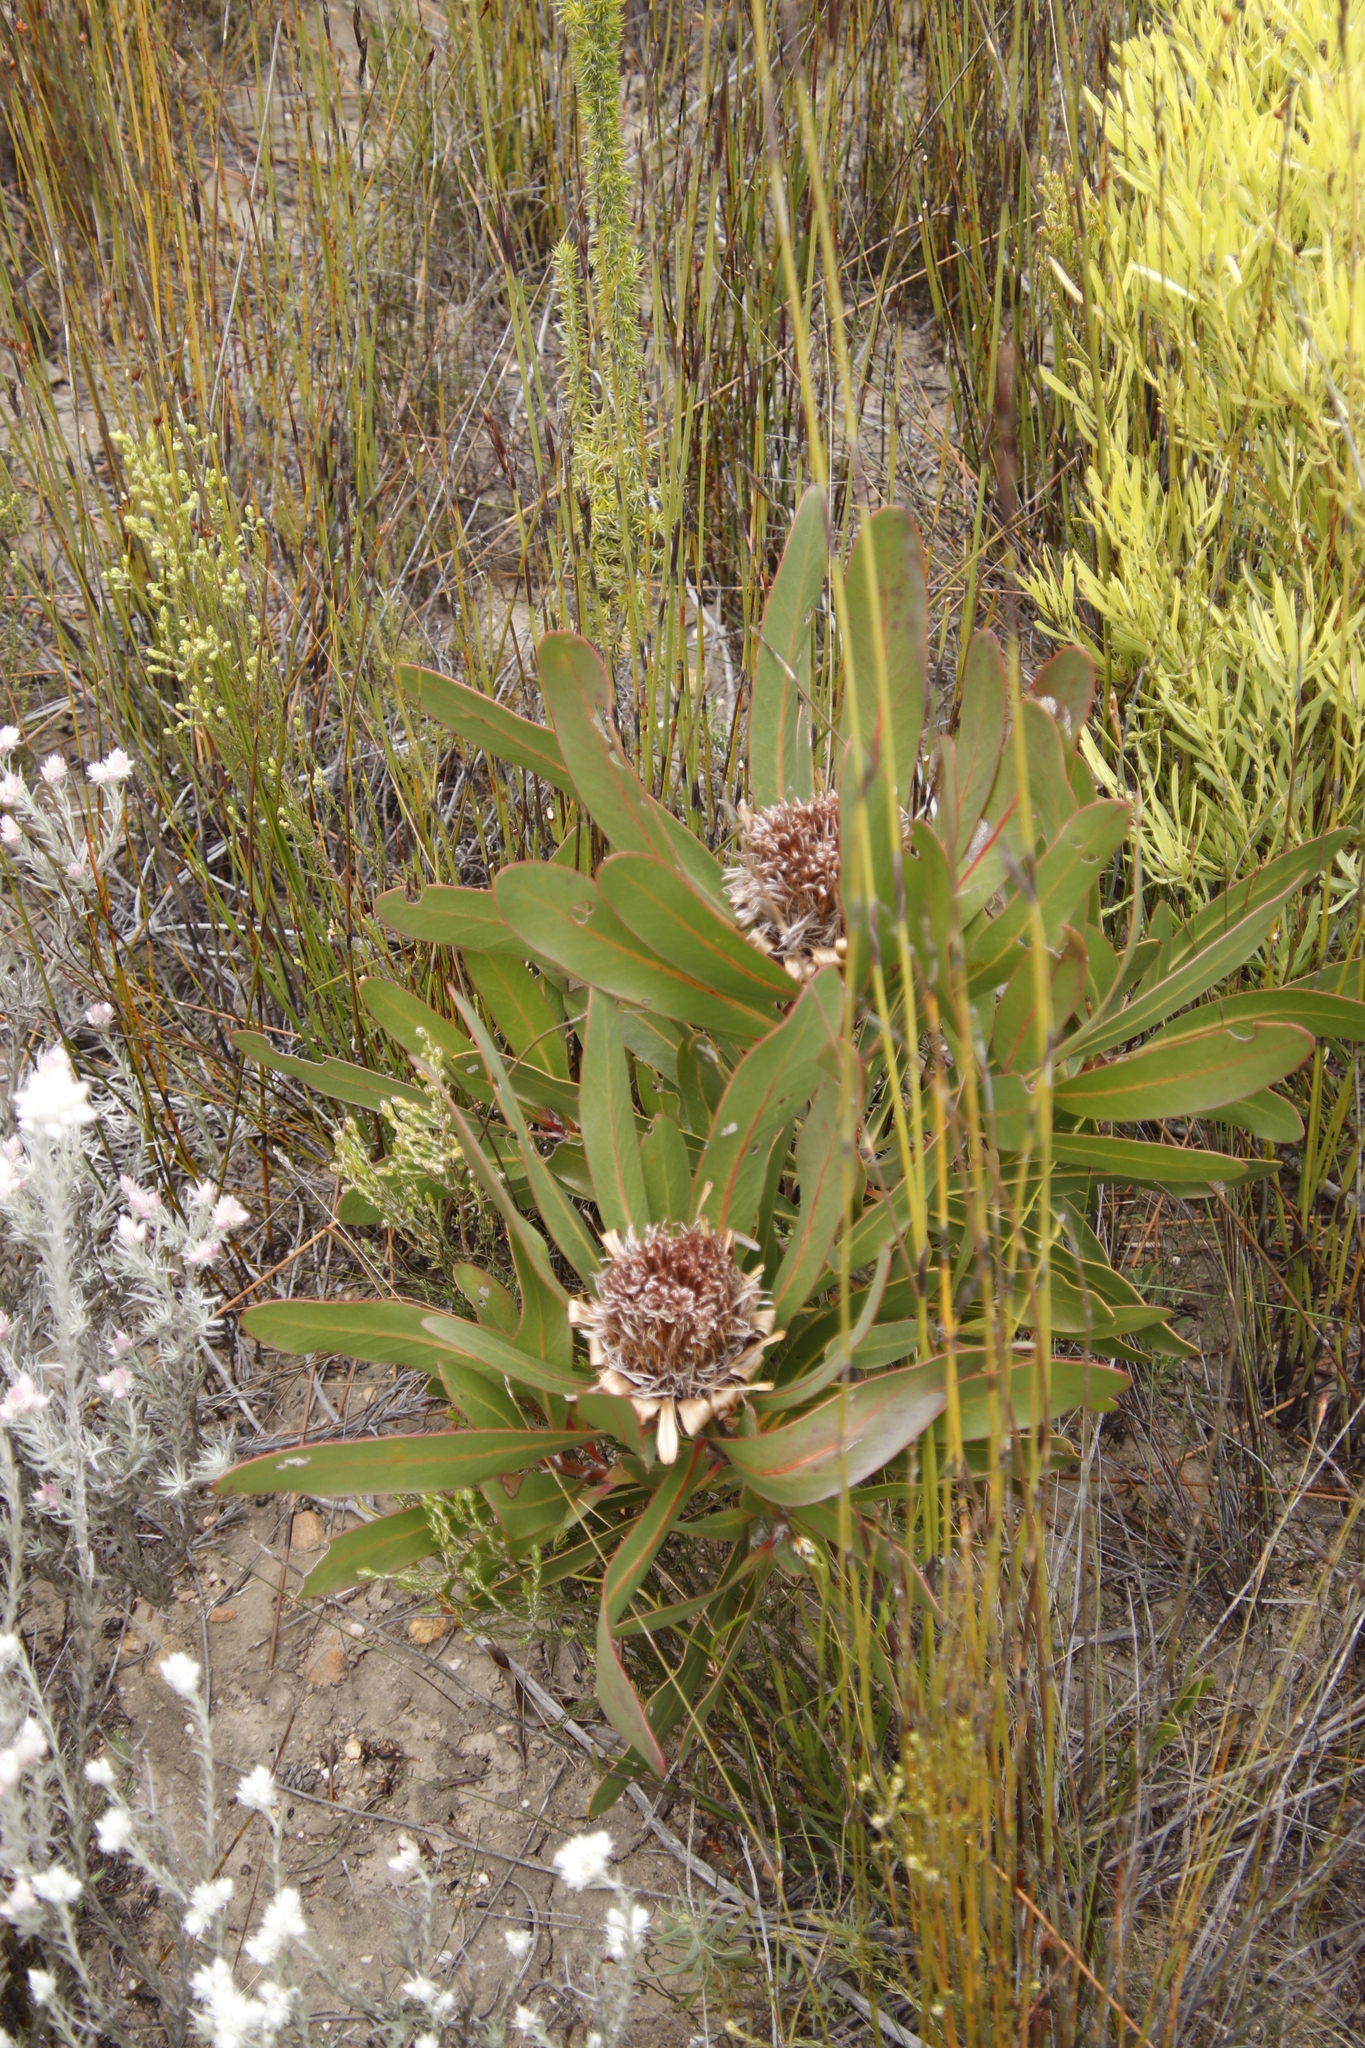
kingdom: Plantae
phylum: Tracheophyta
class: Magnoliopsida
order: Proteales
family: Proteaceae
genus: Protea
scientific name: Protea lorifolia
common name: Strap-leaved protea
